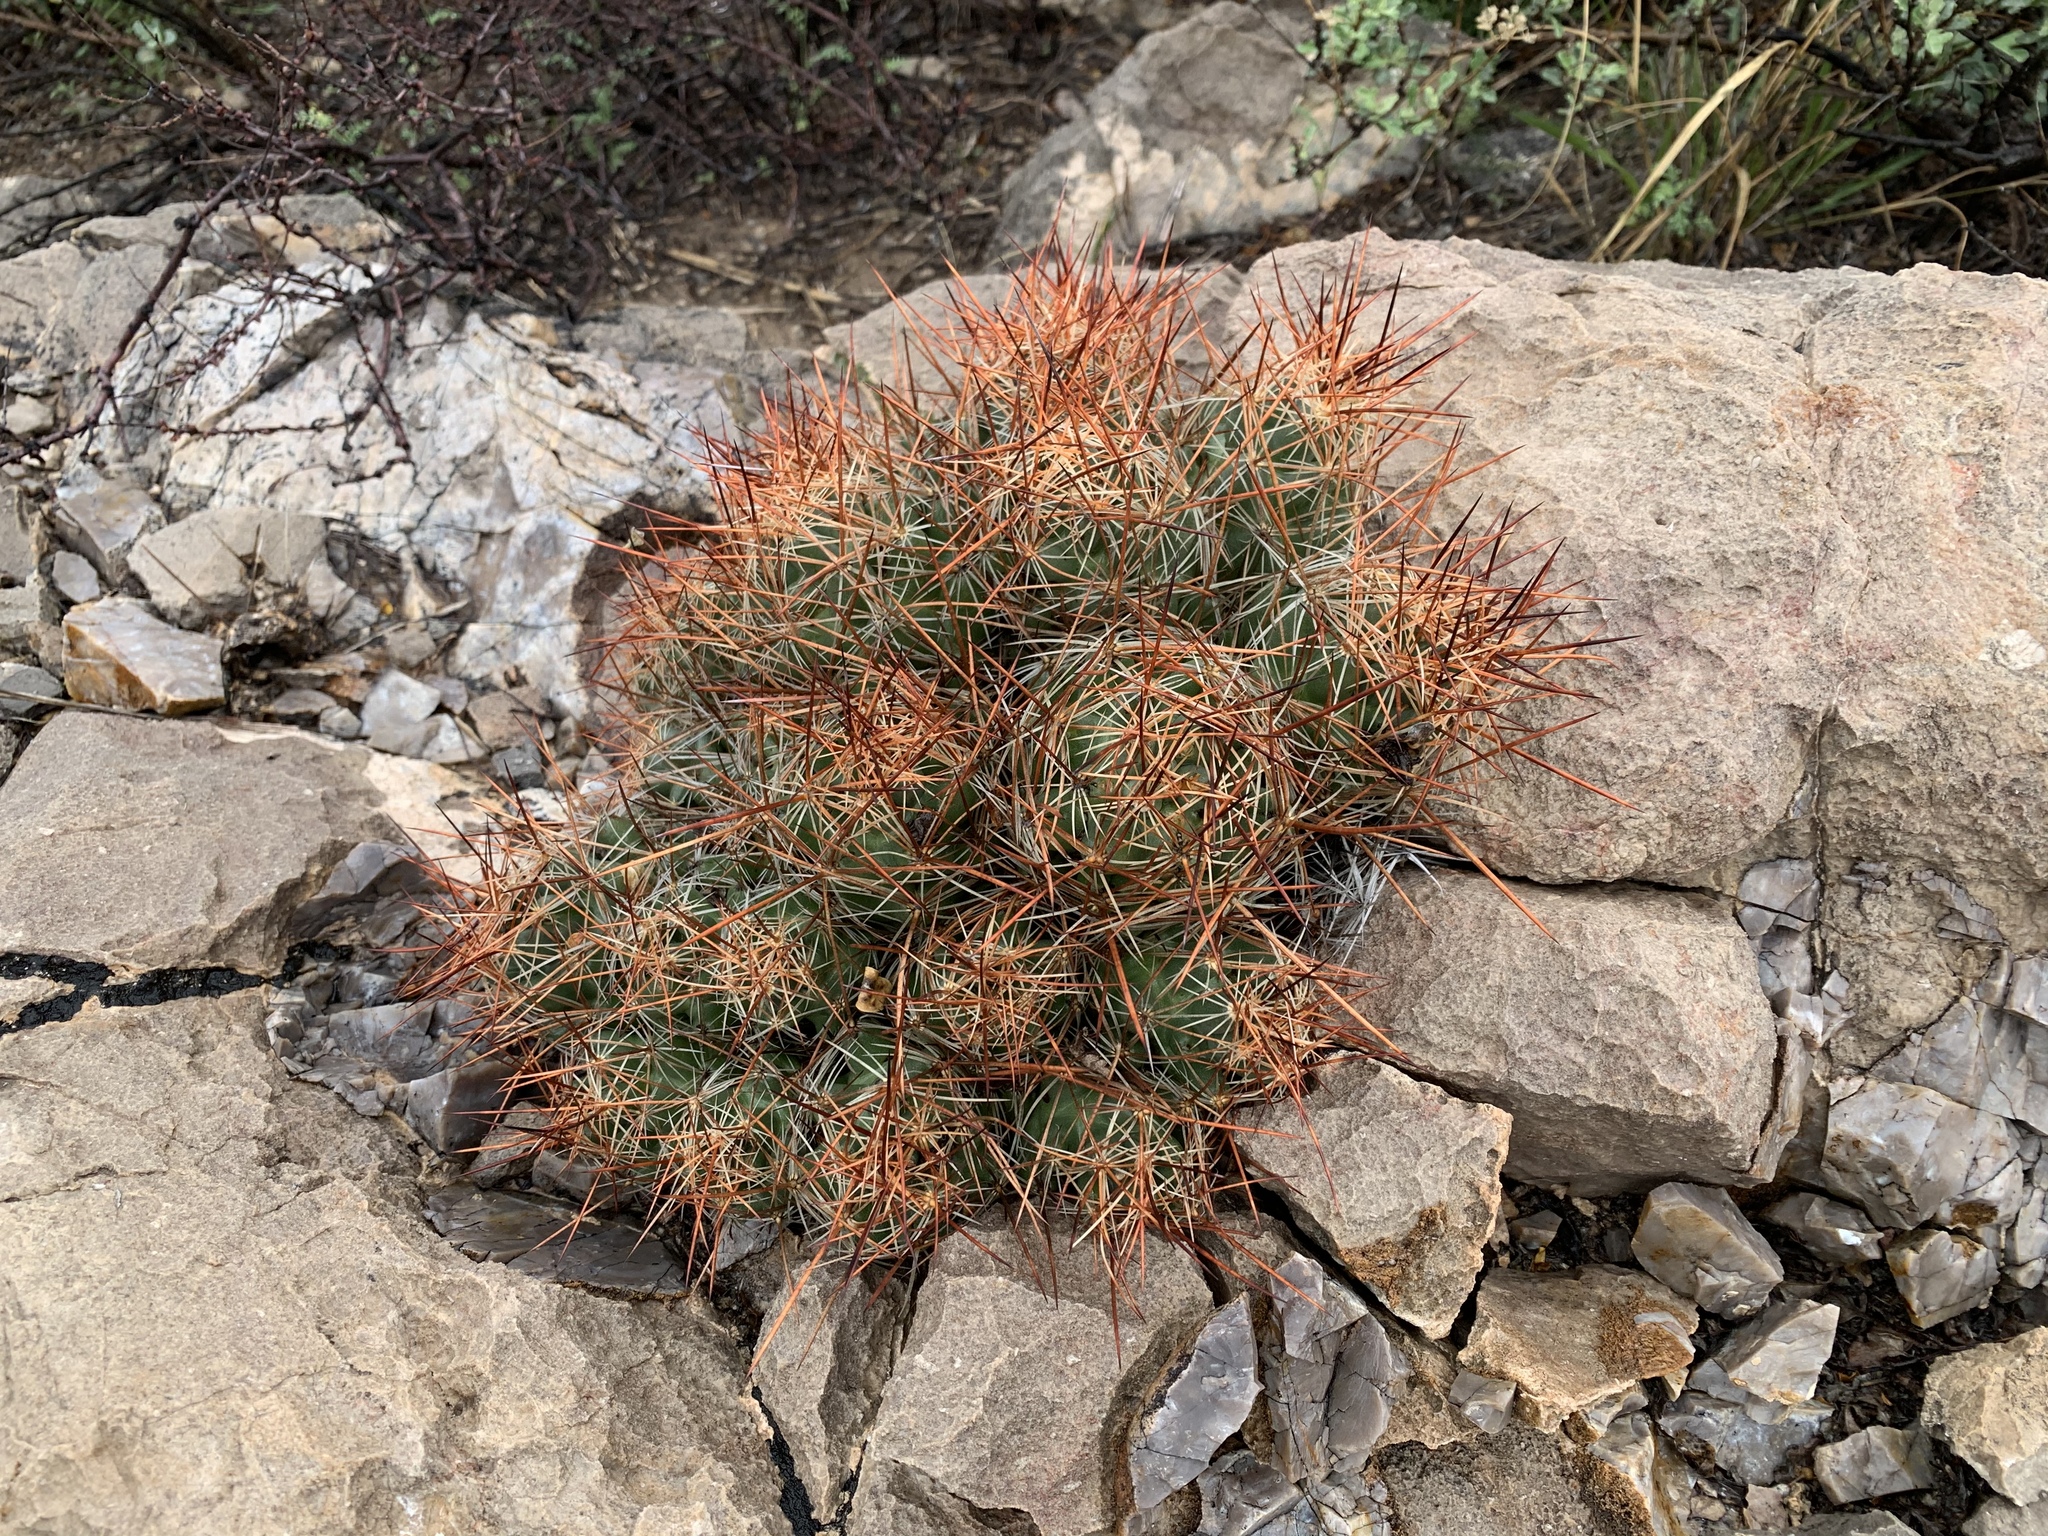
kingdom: Plantae
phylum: Tracheophyta
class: Magnoliopsida
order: Caryophyllales
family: Cactaceae
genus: Coryphantha
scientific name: Coryphantha macromeris
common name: Nipple beehive cactus
